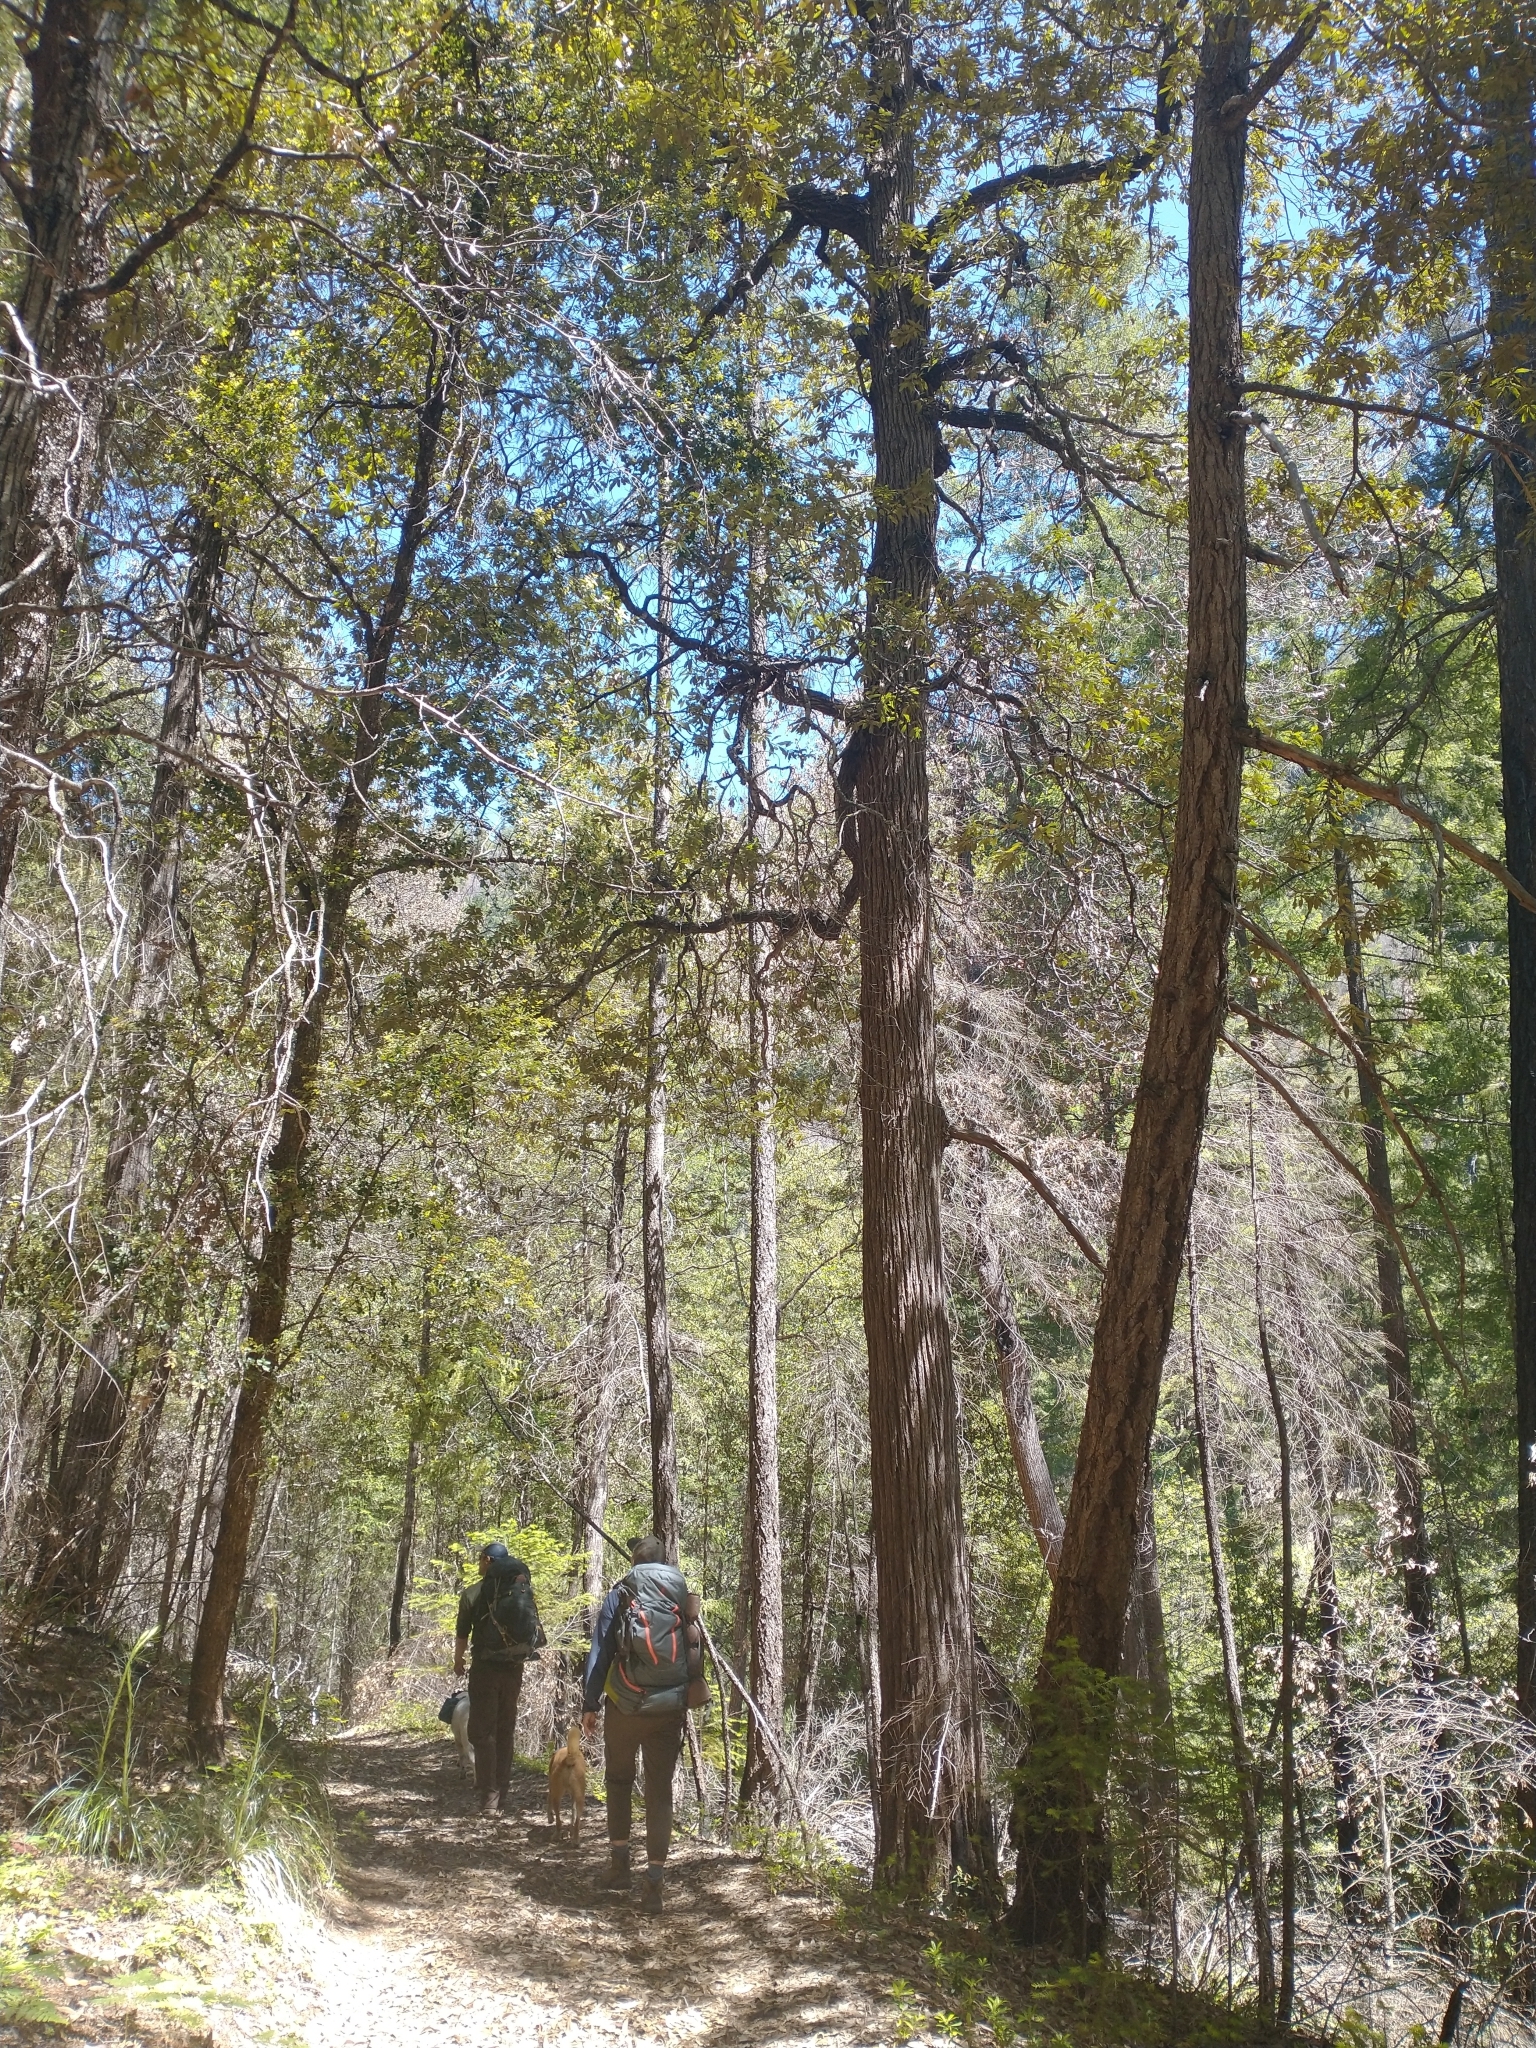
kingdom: Plantae
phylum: Tracheophyta
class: Magnoliopsida
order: Fagales
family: Fagaceae
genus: Chrysolepis
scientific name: Chrysolepis chrysophylla
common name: Giant chinquapin
